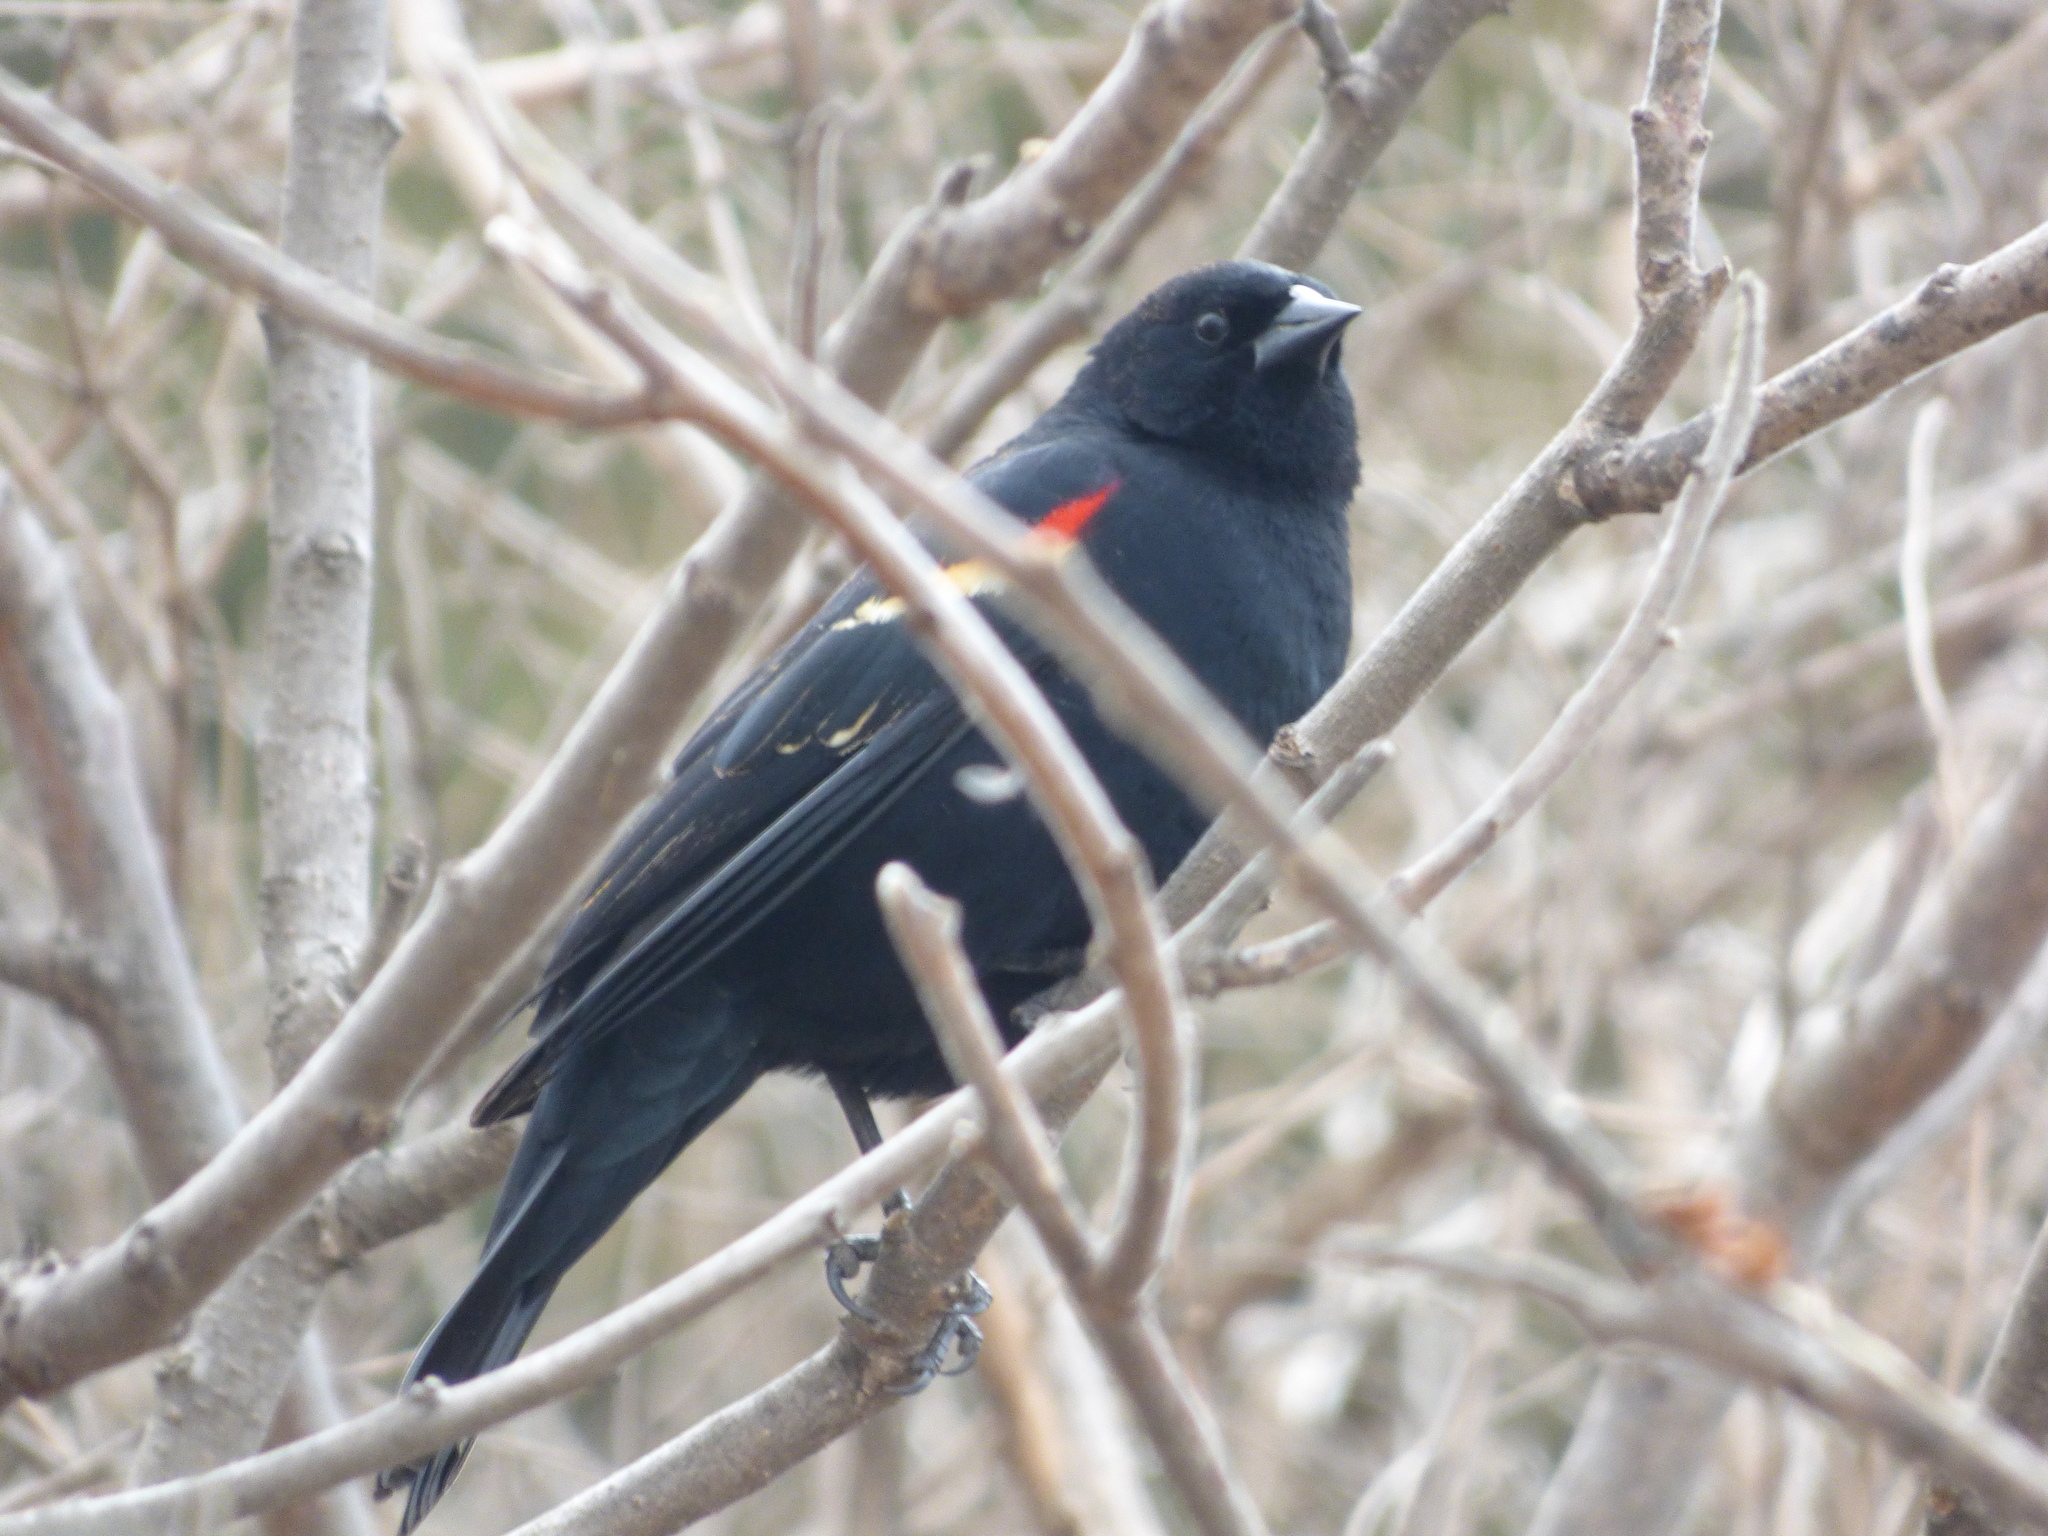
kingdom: Animalia
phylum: Chordata
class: Aves
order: Passeriformes
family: Icteridae
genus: Agelaius
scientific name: Agelaius phoeniceus
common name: Red-winged blackbird
